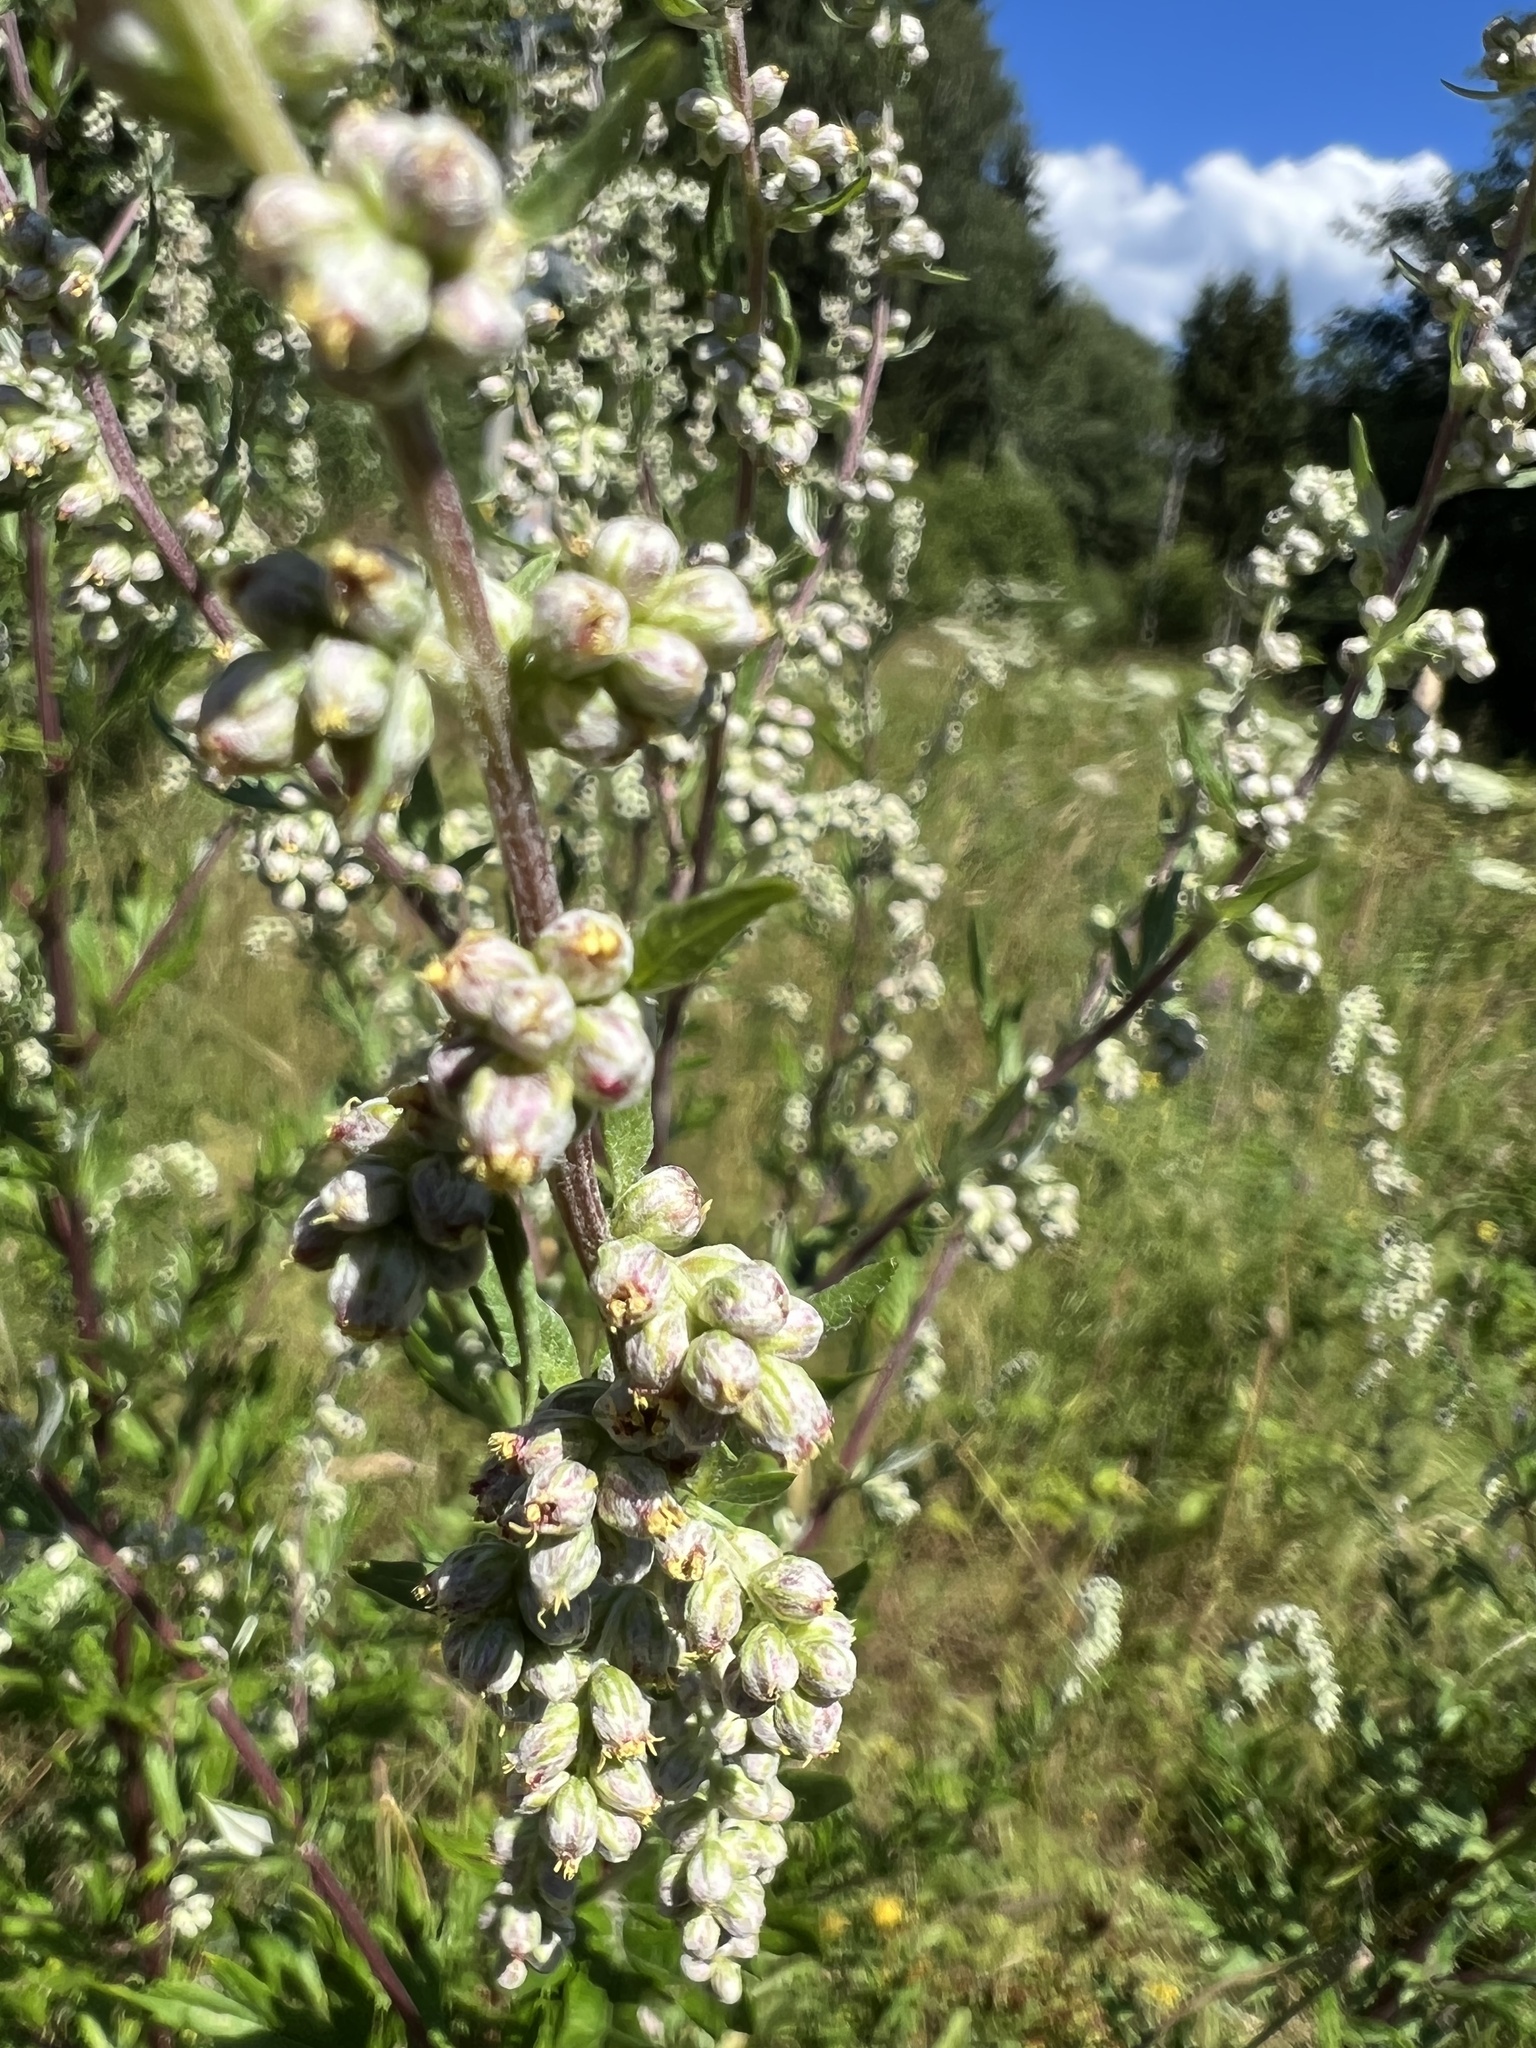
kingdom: Plantae
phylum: Tracheophyta
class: Magnoliopsida
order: Asterales
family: Asteraceae
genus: Artemisia
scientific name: Artemisia vulgaris
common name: Mugwort
